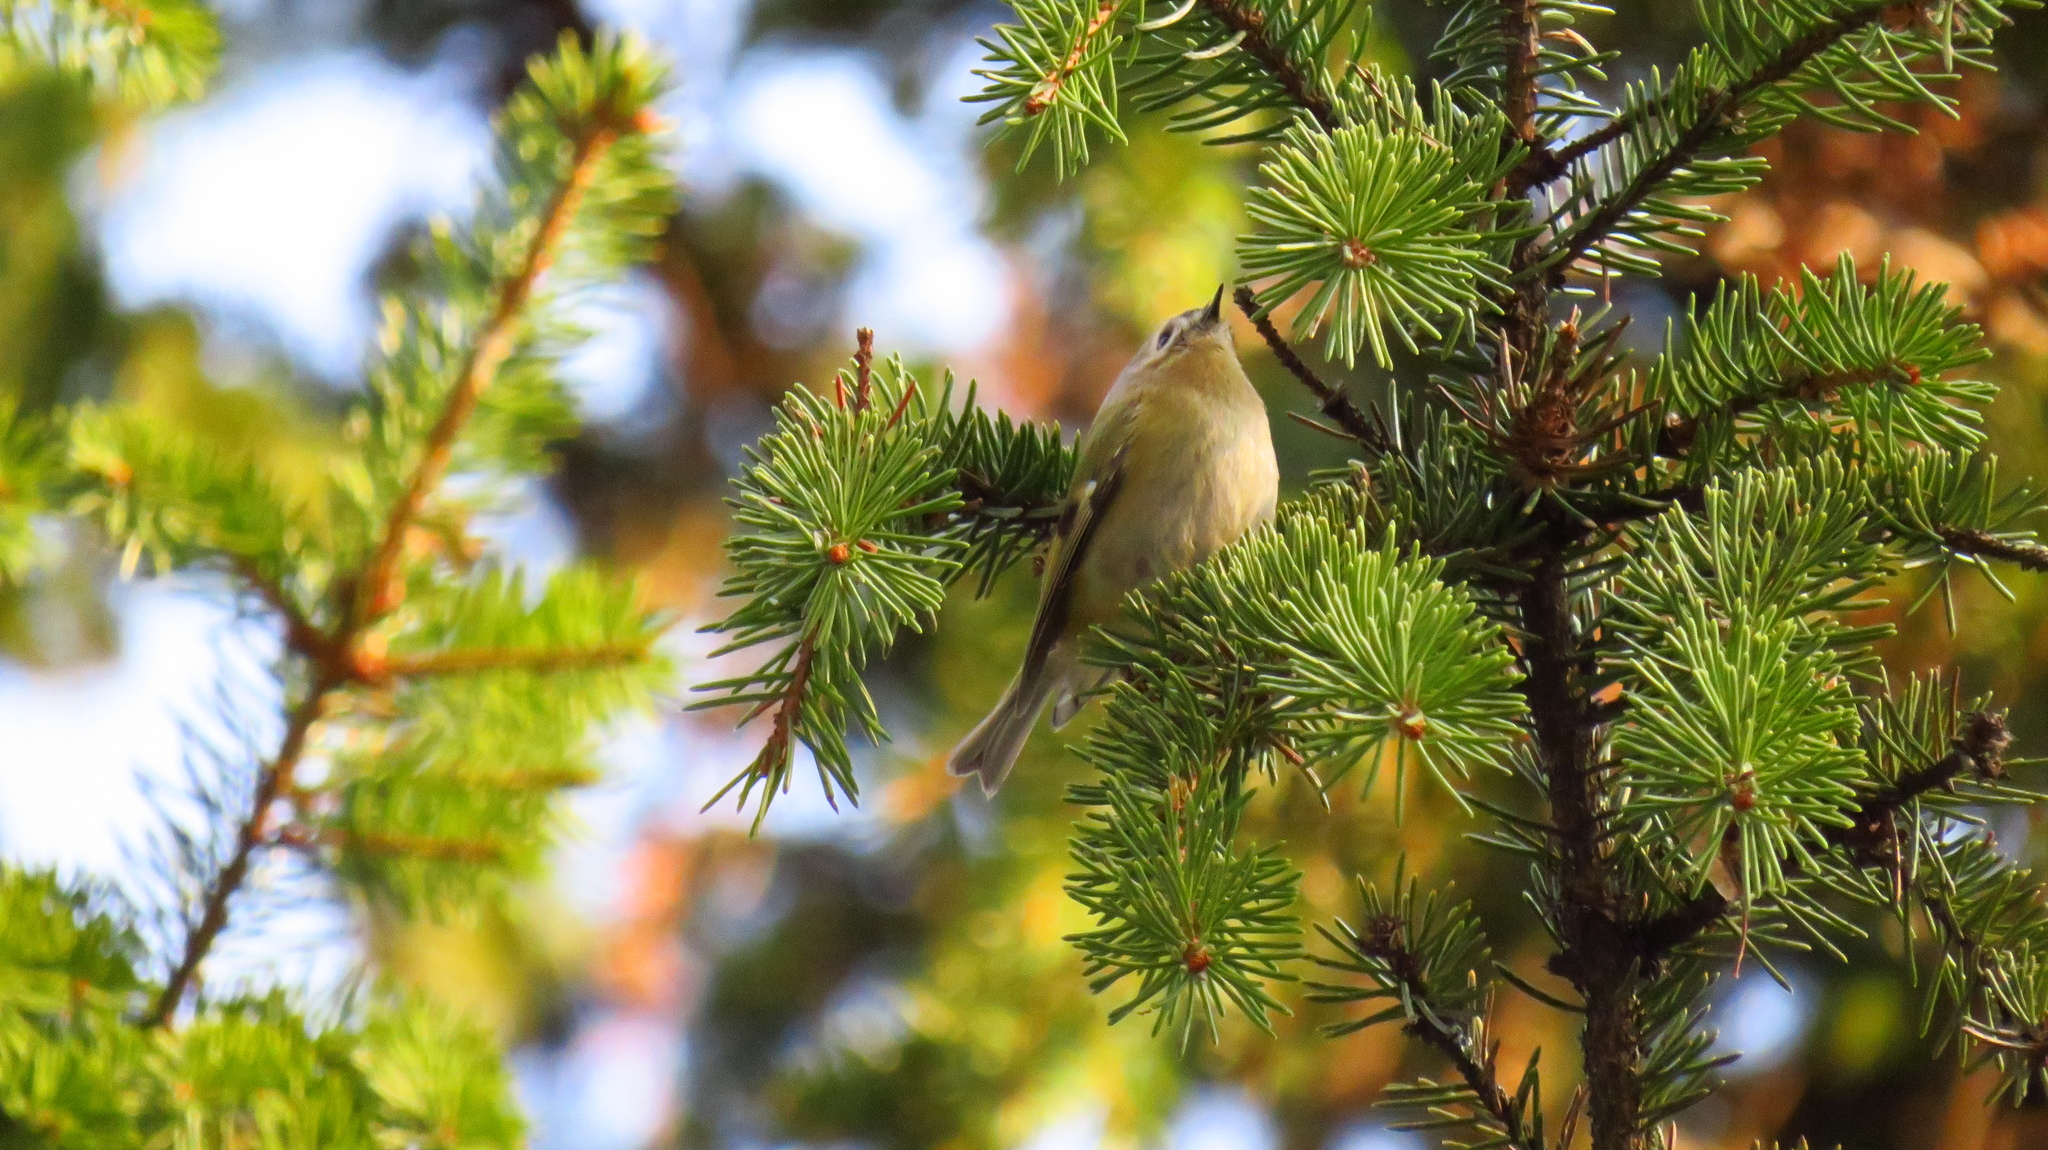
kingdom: Animalia
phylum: Chordata
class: Aves
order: Passeriformes
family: Regulidae
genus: Regulus
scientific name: Regulus regulus
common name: Goldcrest
